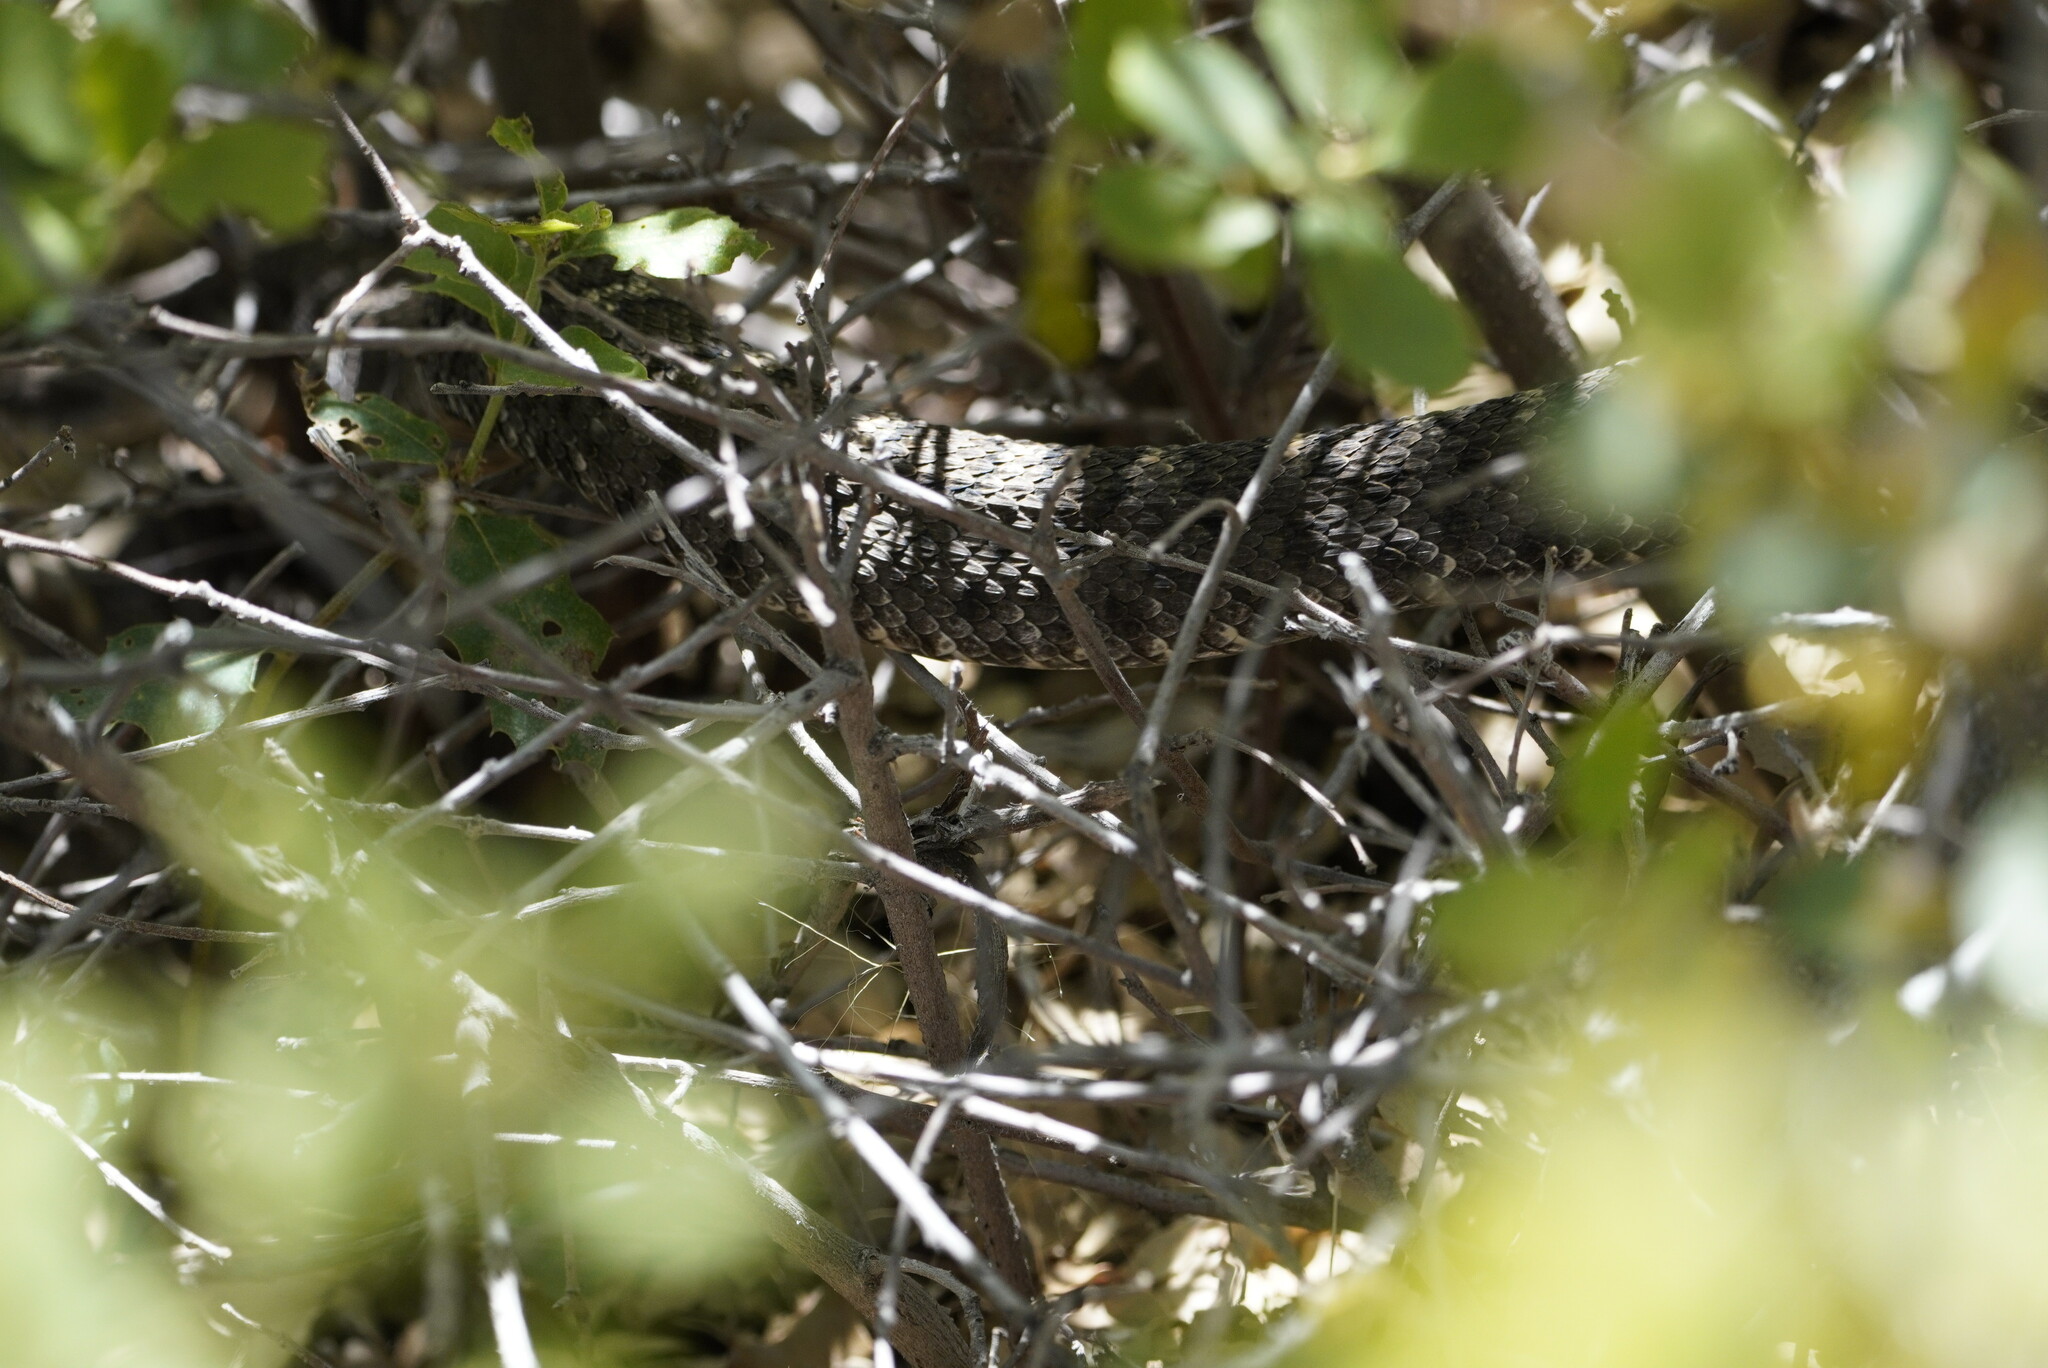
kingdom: Animalia
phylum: Chordata
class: Squamata
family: Viperidae
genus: Crotalus
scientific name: Crotalus cerberus
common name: Arizona black rattlesnake
